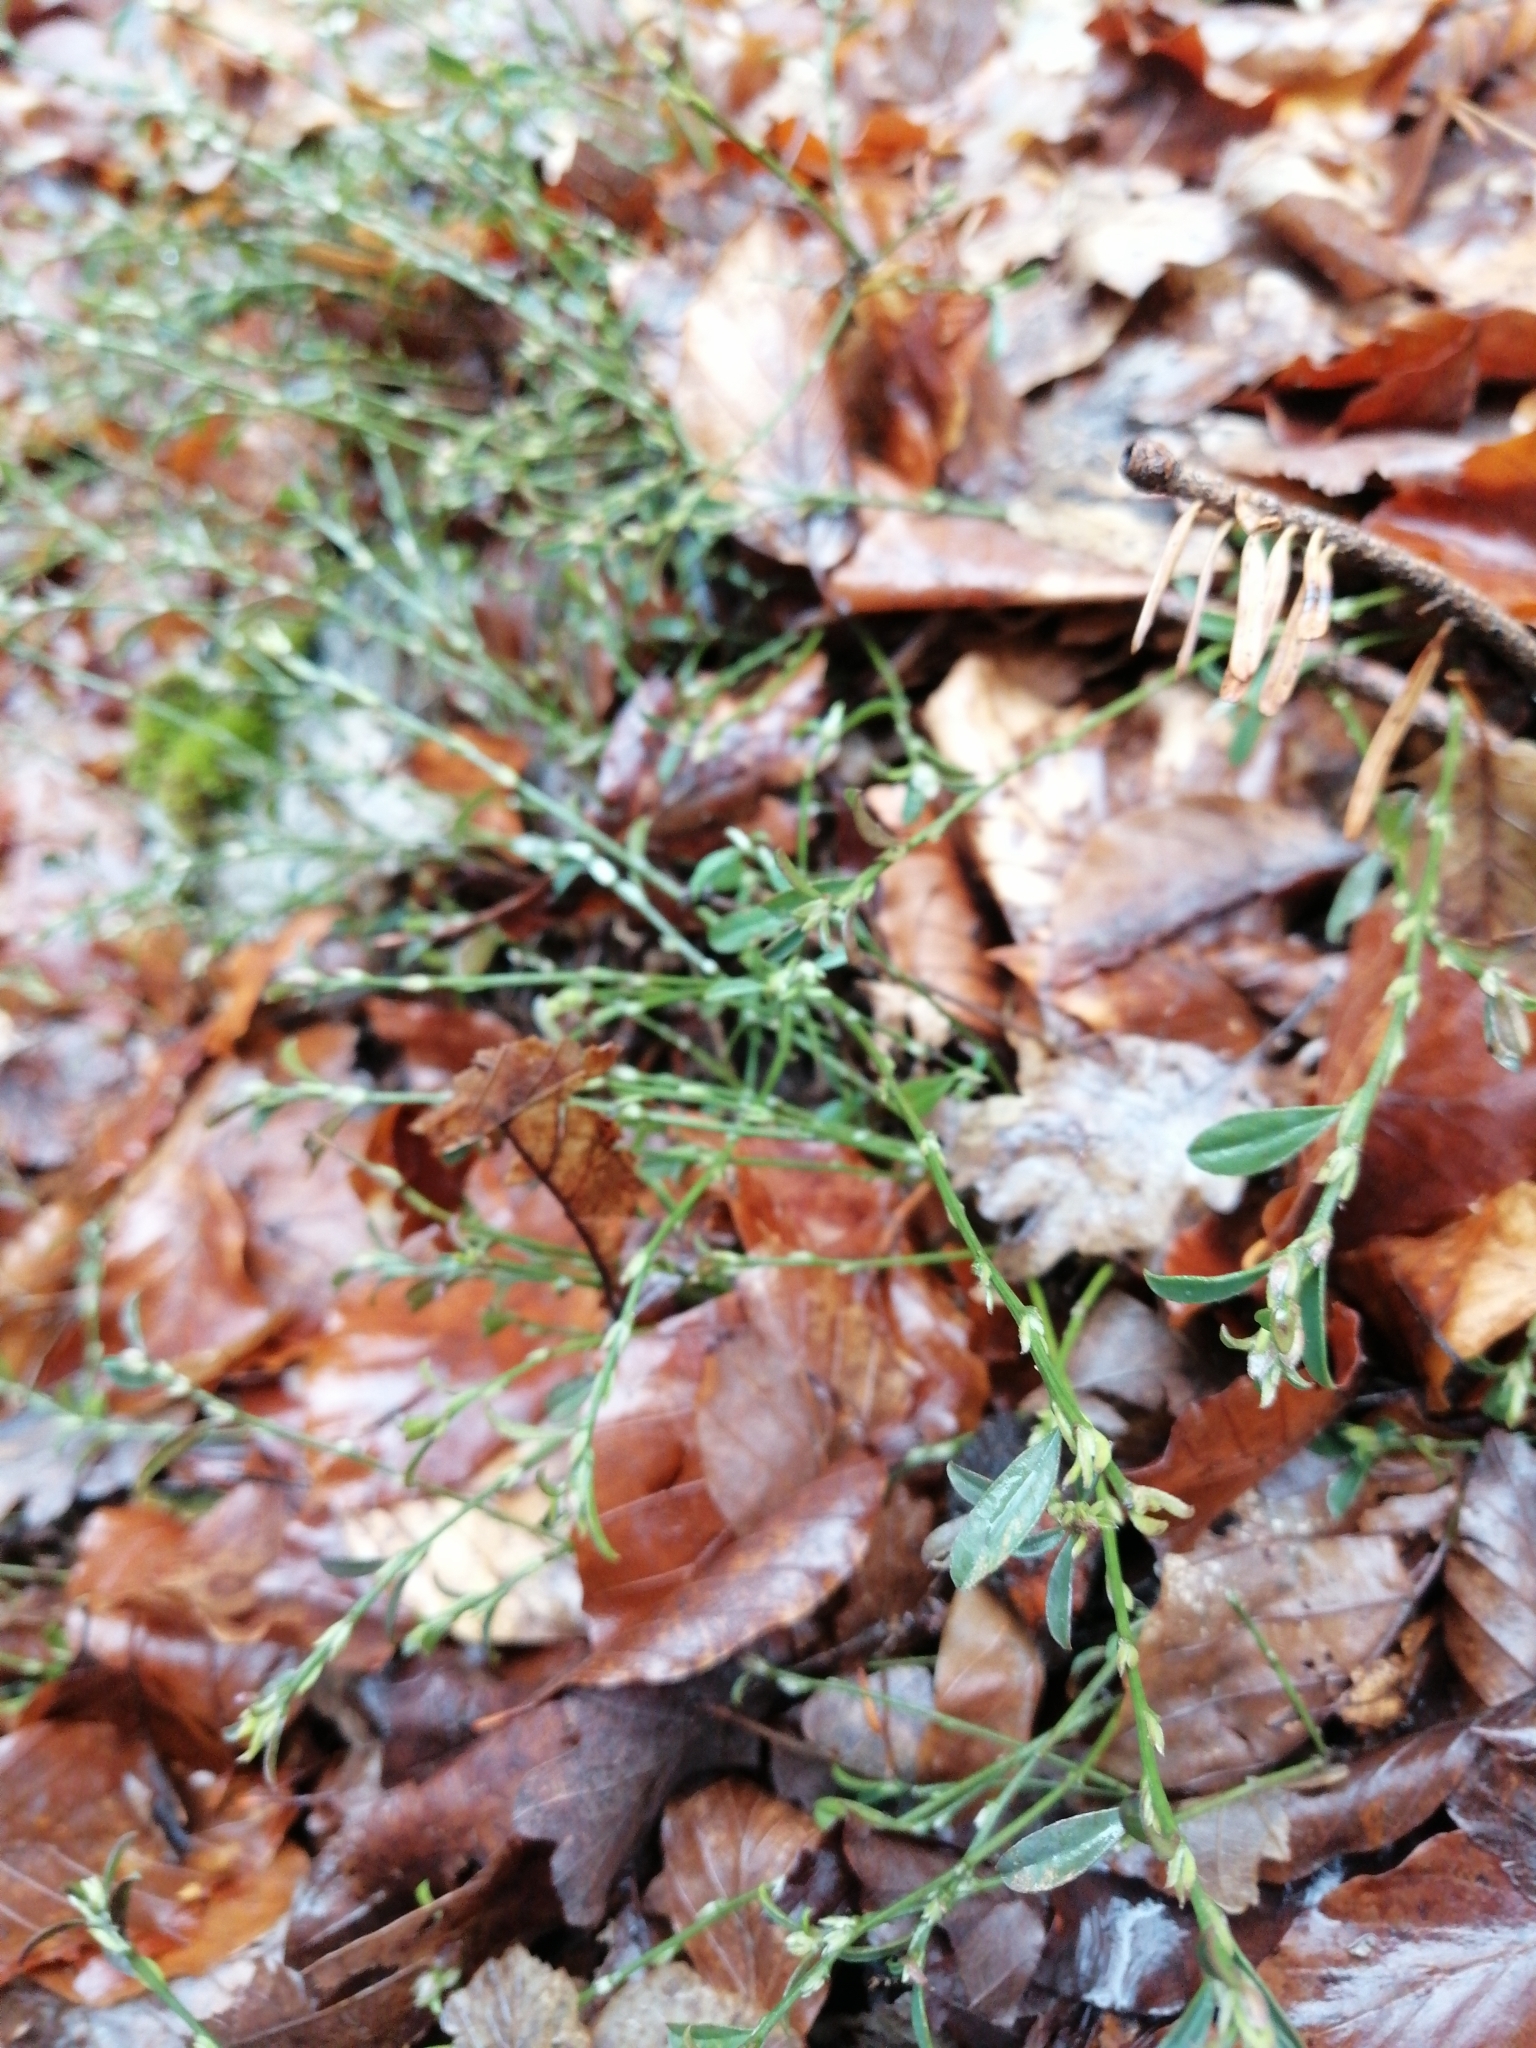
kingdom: Plantae
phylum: Tracheophyta
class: Magnoliopsida
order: Caryophyllales
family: Polygonaceae
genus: Polygonum
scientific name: Polygonum aviculare
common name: Prostrate knotweed
